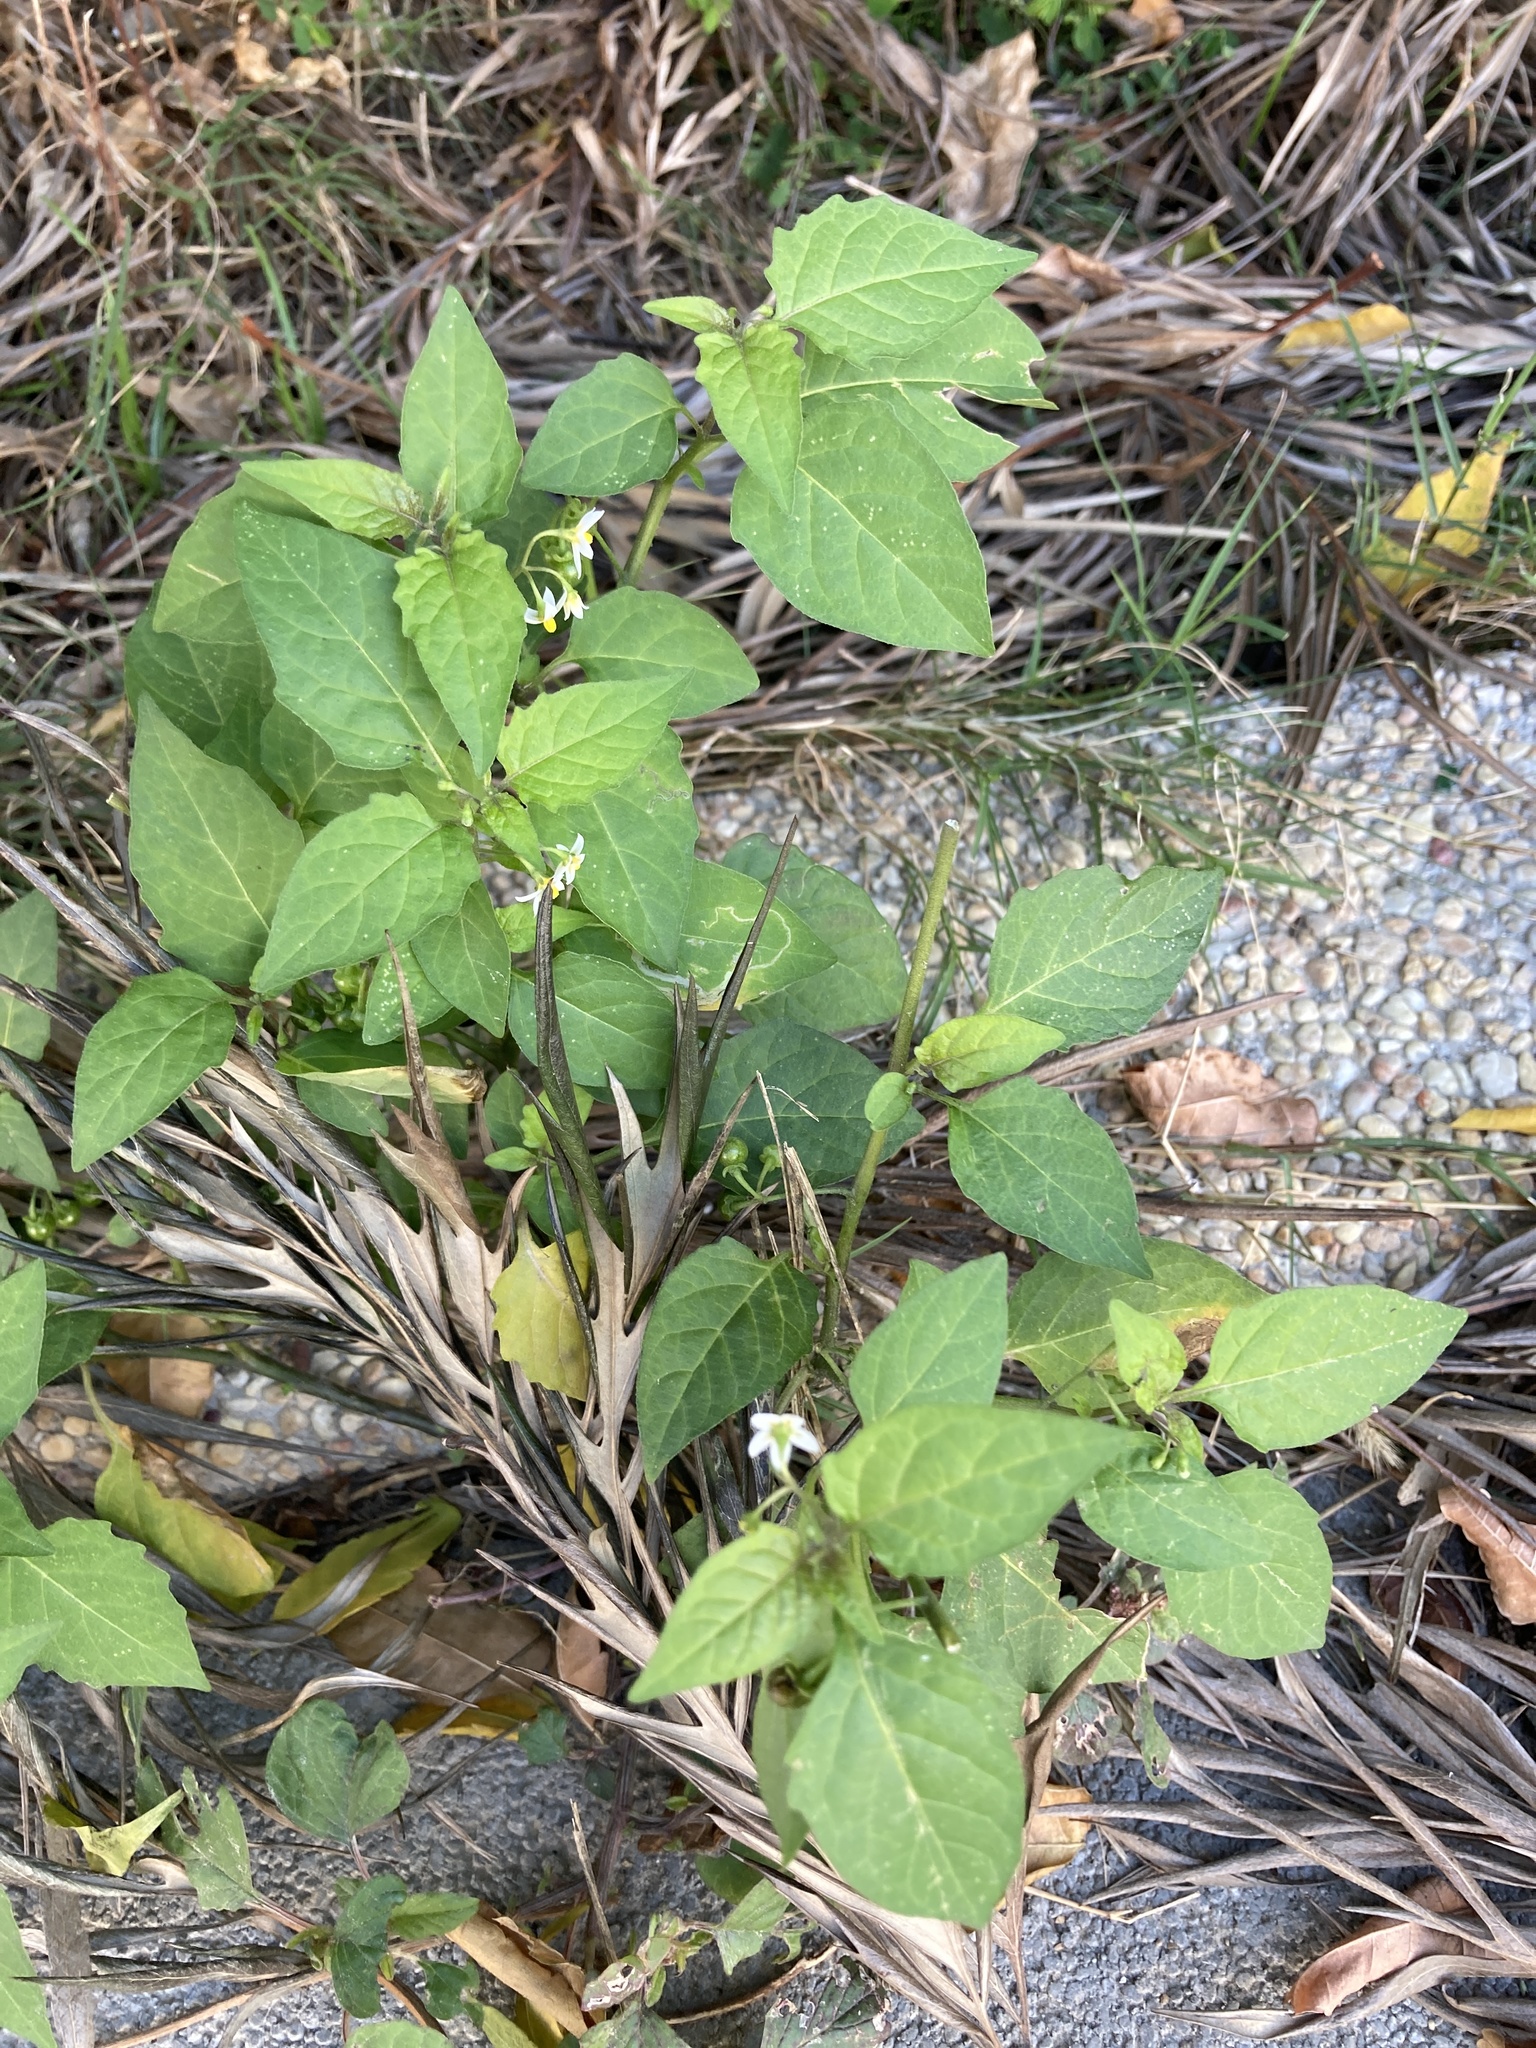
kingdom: Plantae
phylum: Tracheophyta
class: Magnoliopsida
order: Solanales
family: Solanaceae
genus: Solanum
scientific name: Solanum americanum
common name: American black nightshade
